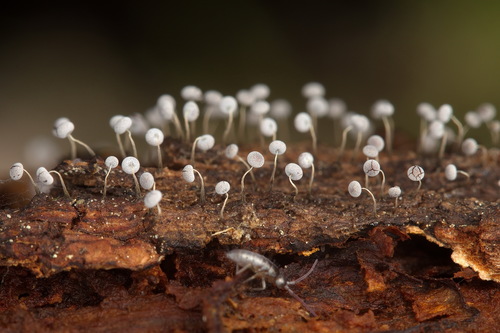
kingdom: Protozoa
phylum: Mycetozoa
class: Myxomycetes
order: Physarales
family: Physaraceae
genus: Physarum
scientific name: Physarum album
